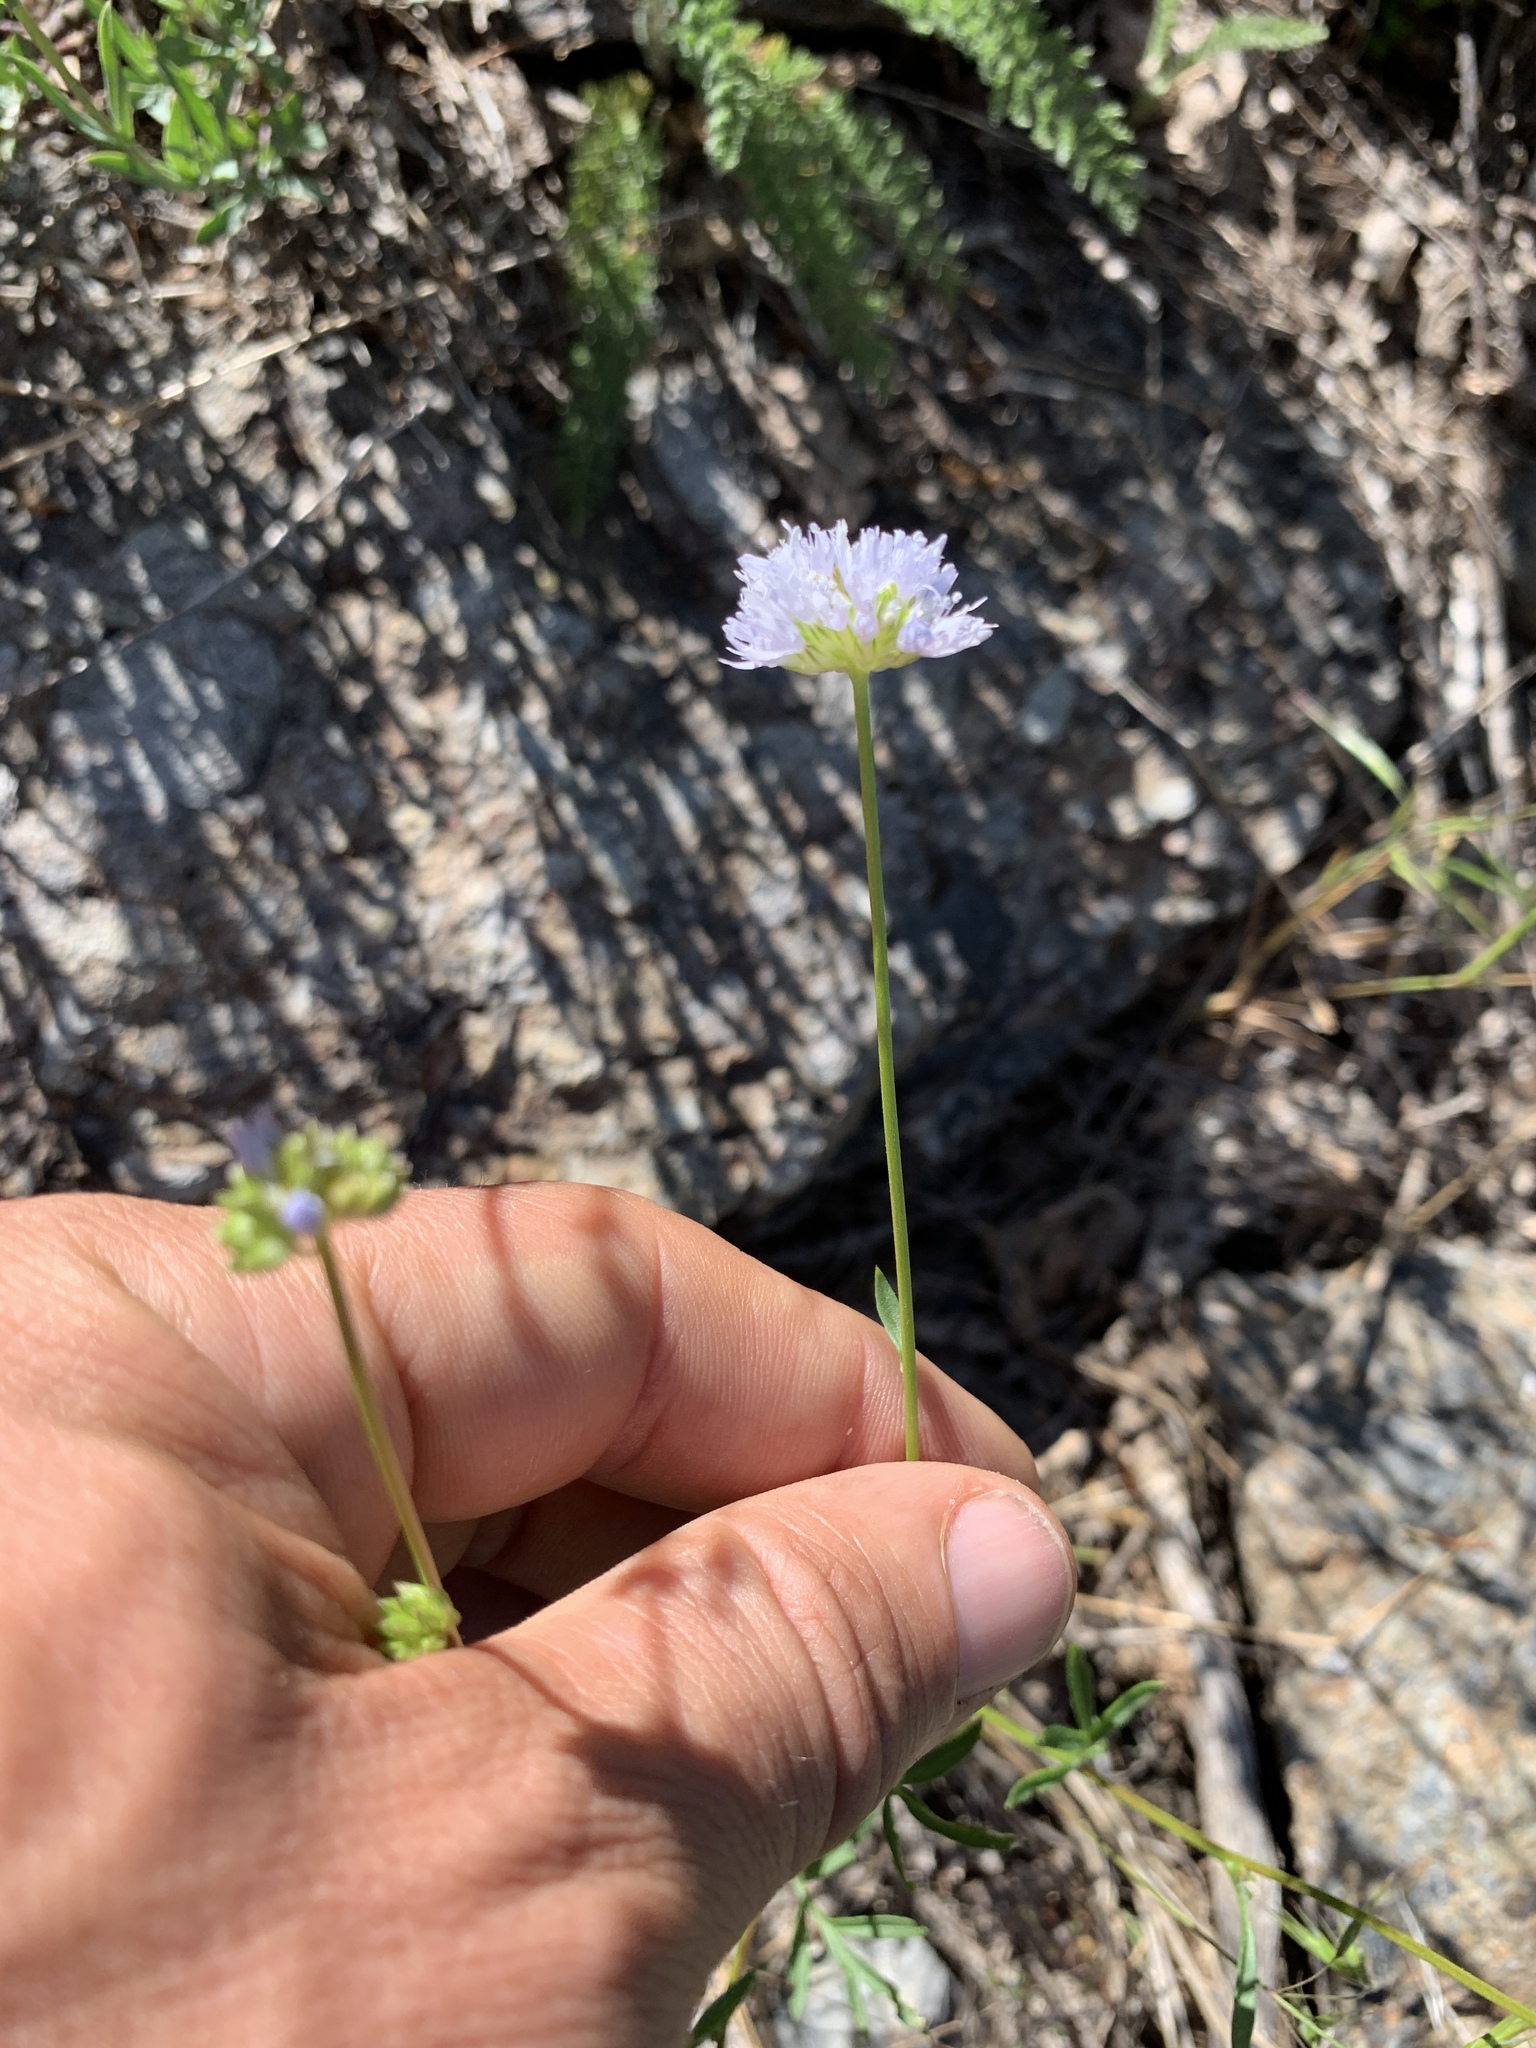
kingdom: Plantae
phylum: Tracheophyta
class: Magnoliopsida
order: Ericales
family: Polemoniaceae
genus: Gilia
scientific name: Gilia capitata
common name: Bluehead gilia
